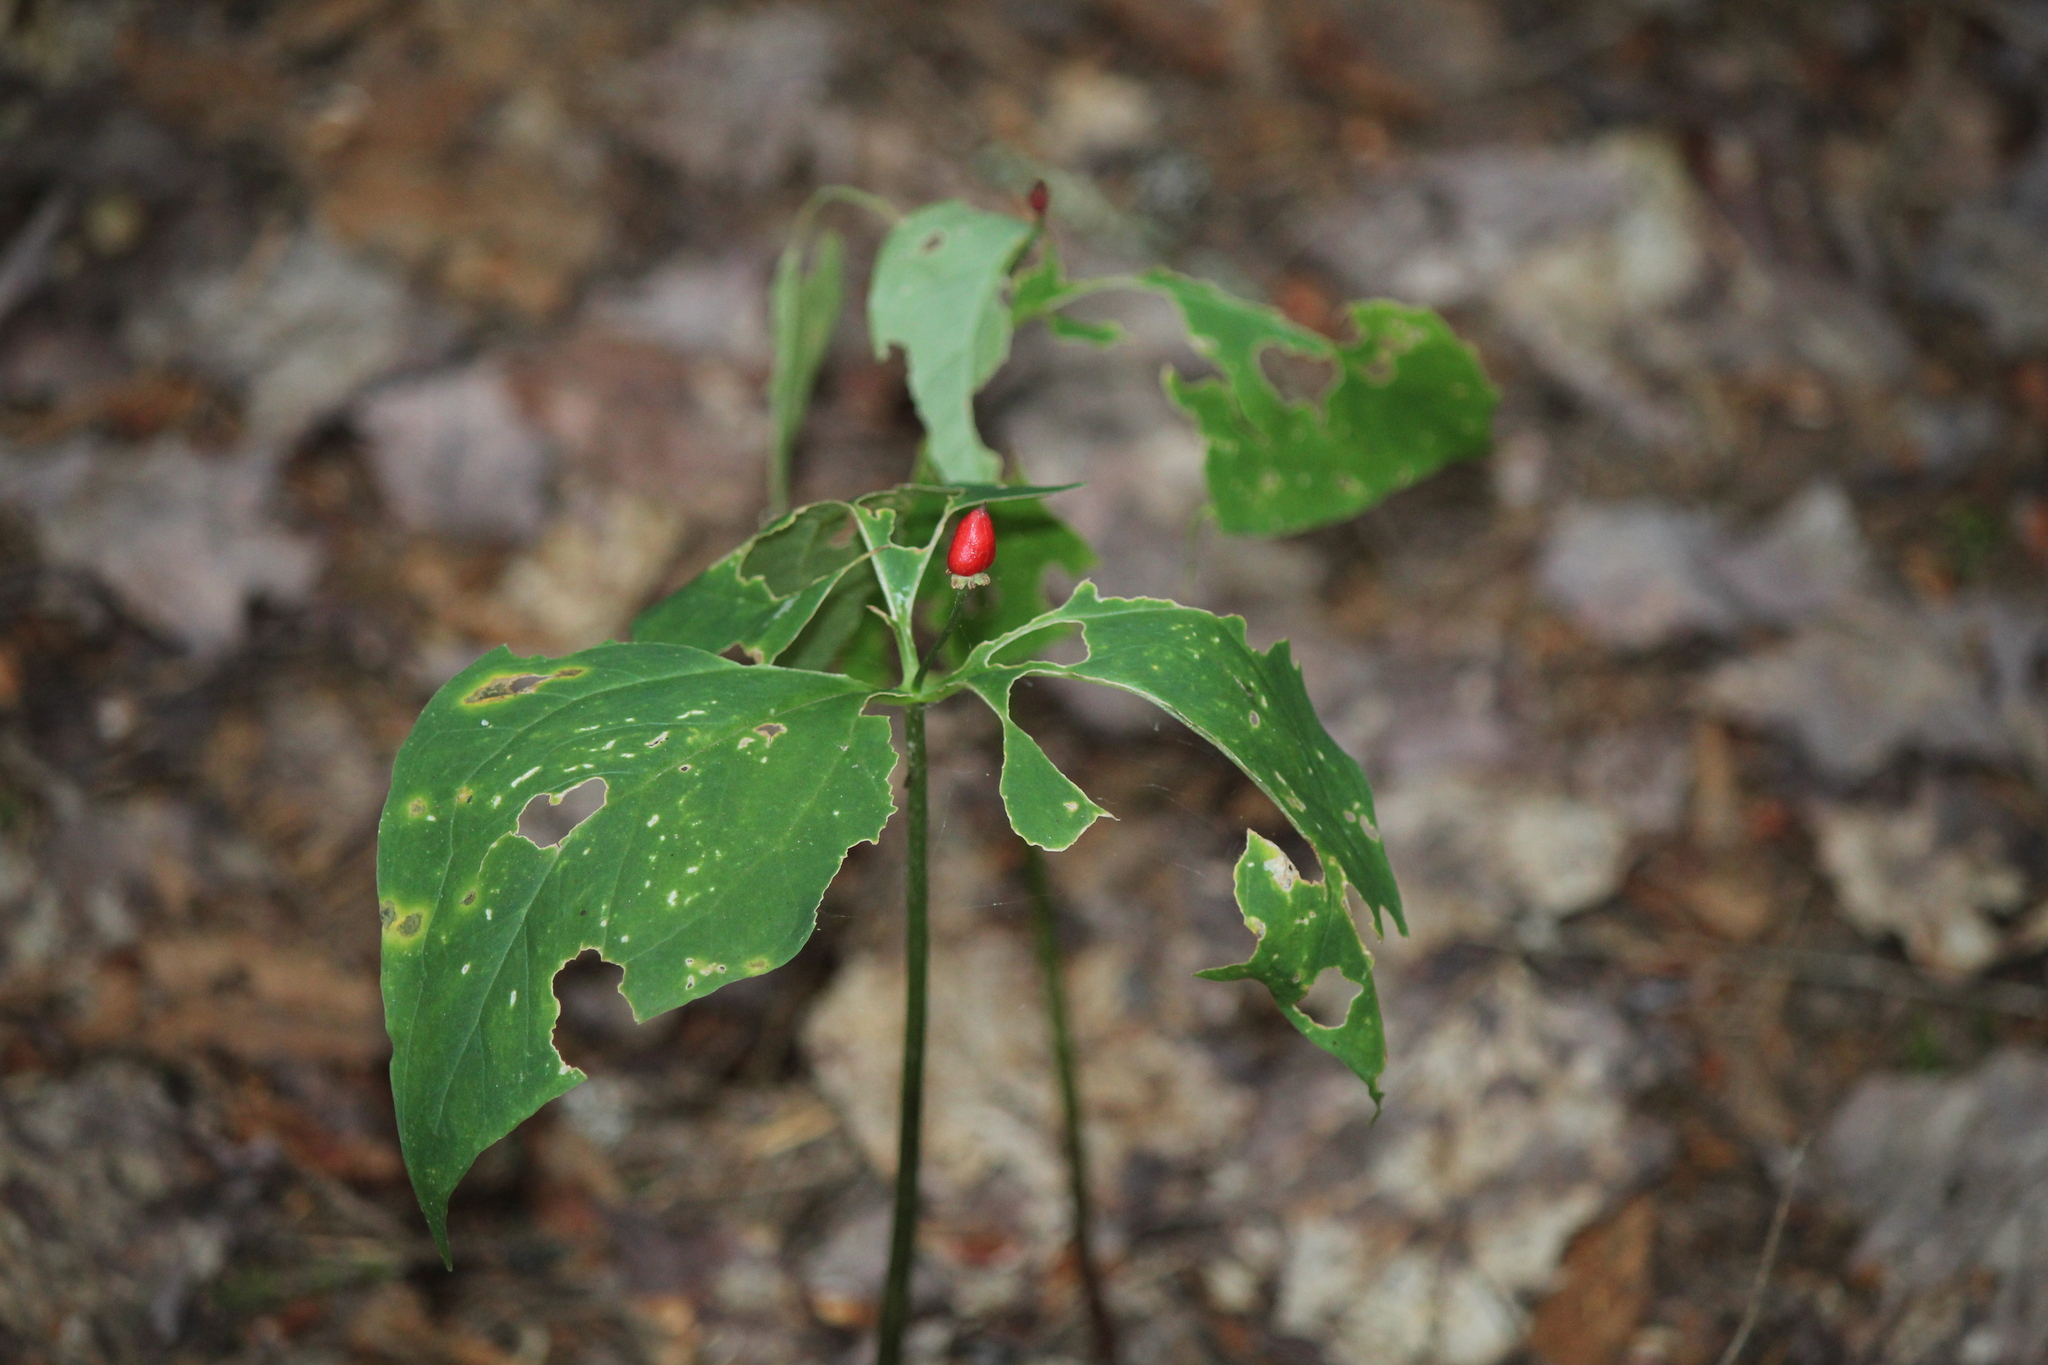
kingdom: Plantae
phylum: Tracheophyta
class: Liliopsida
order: Liliales
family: Melanthiaceae
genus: Trillium
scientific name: Trillium undulatum
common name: Paint trillium
